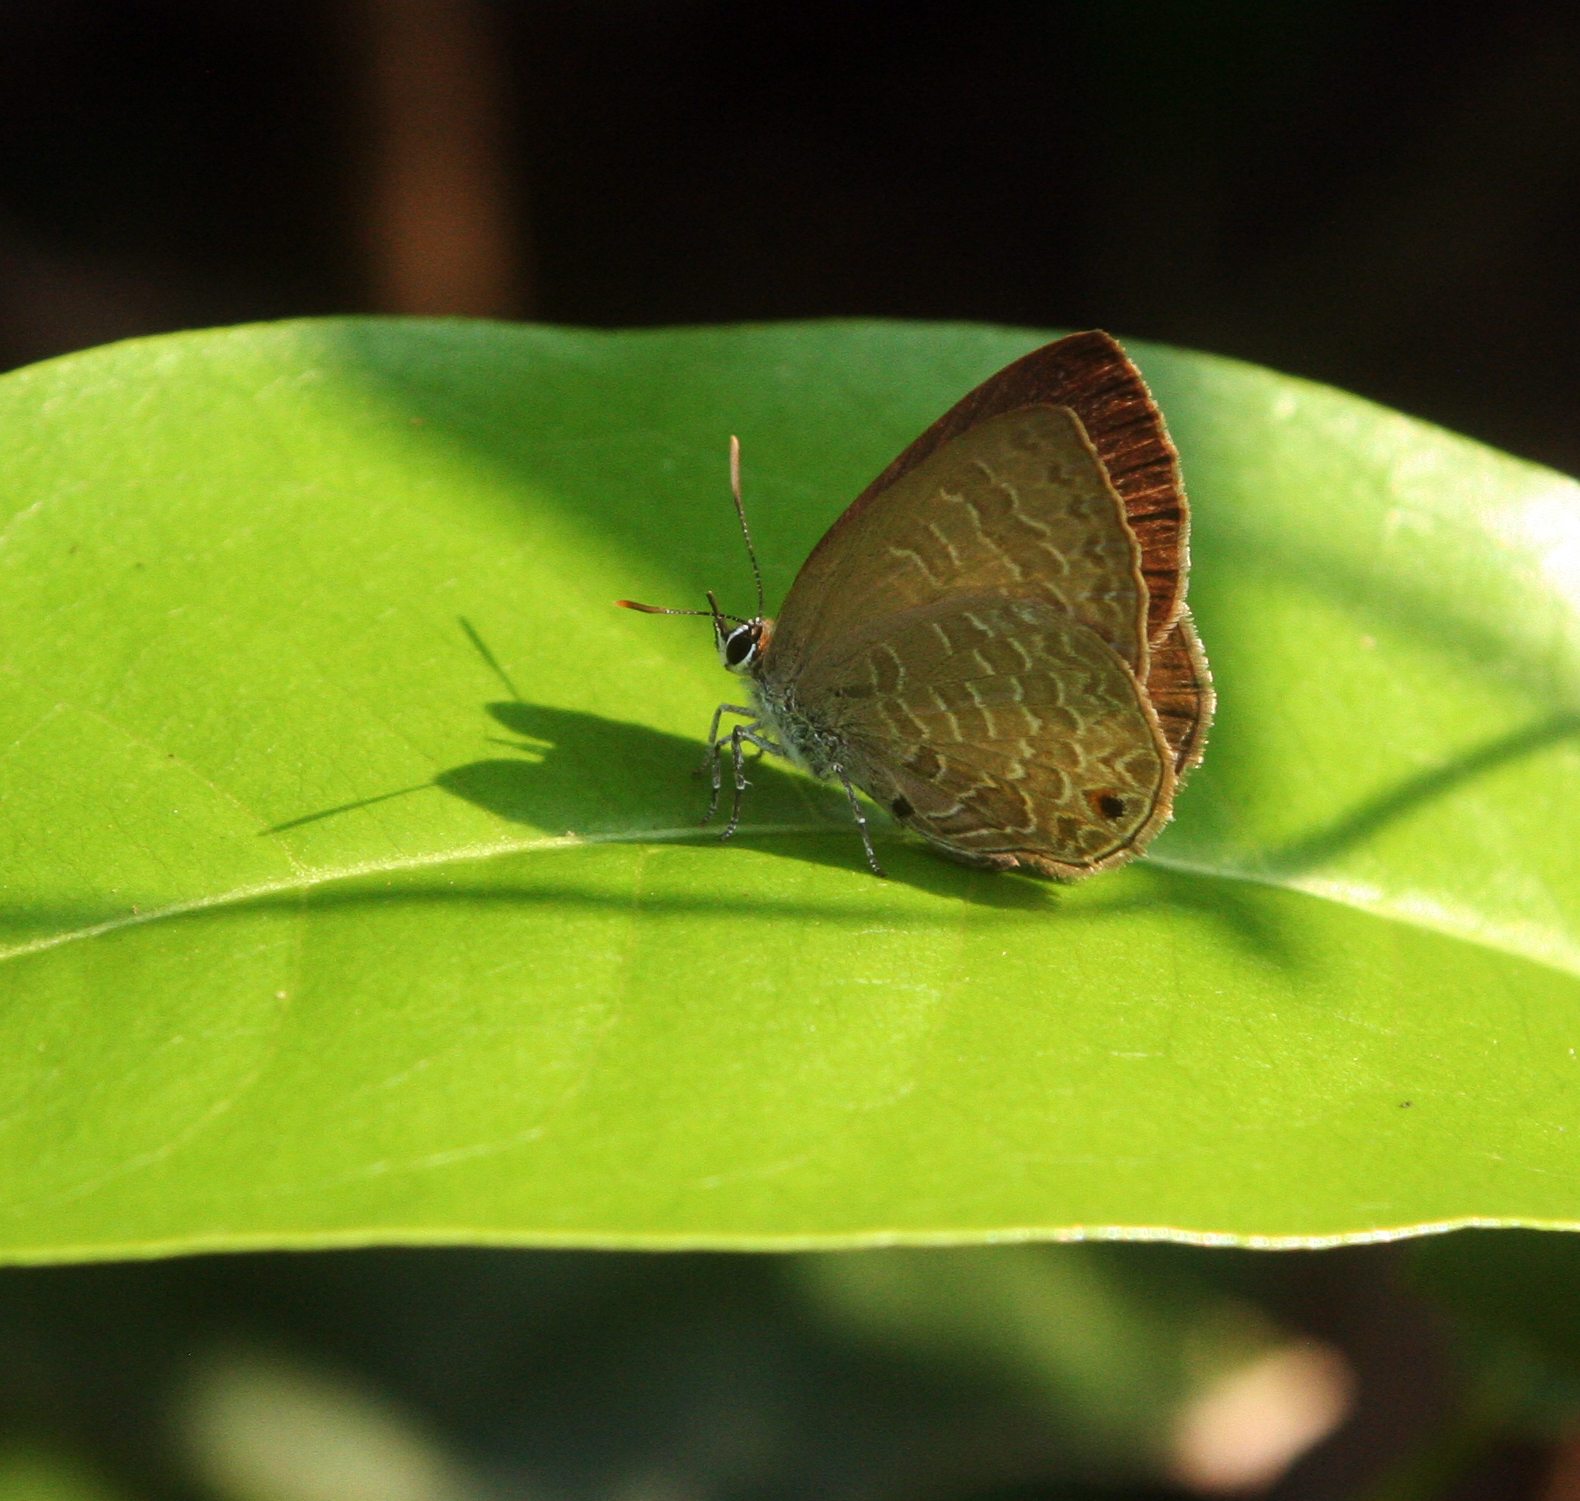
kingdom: Animalia
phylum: Arthropoda
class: Insecta
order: Lepidoptera
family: Lycaenidae
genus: Anthene
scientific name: Anthene emolus
